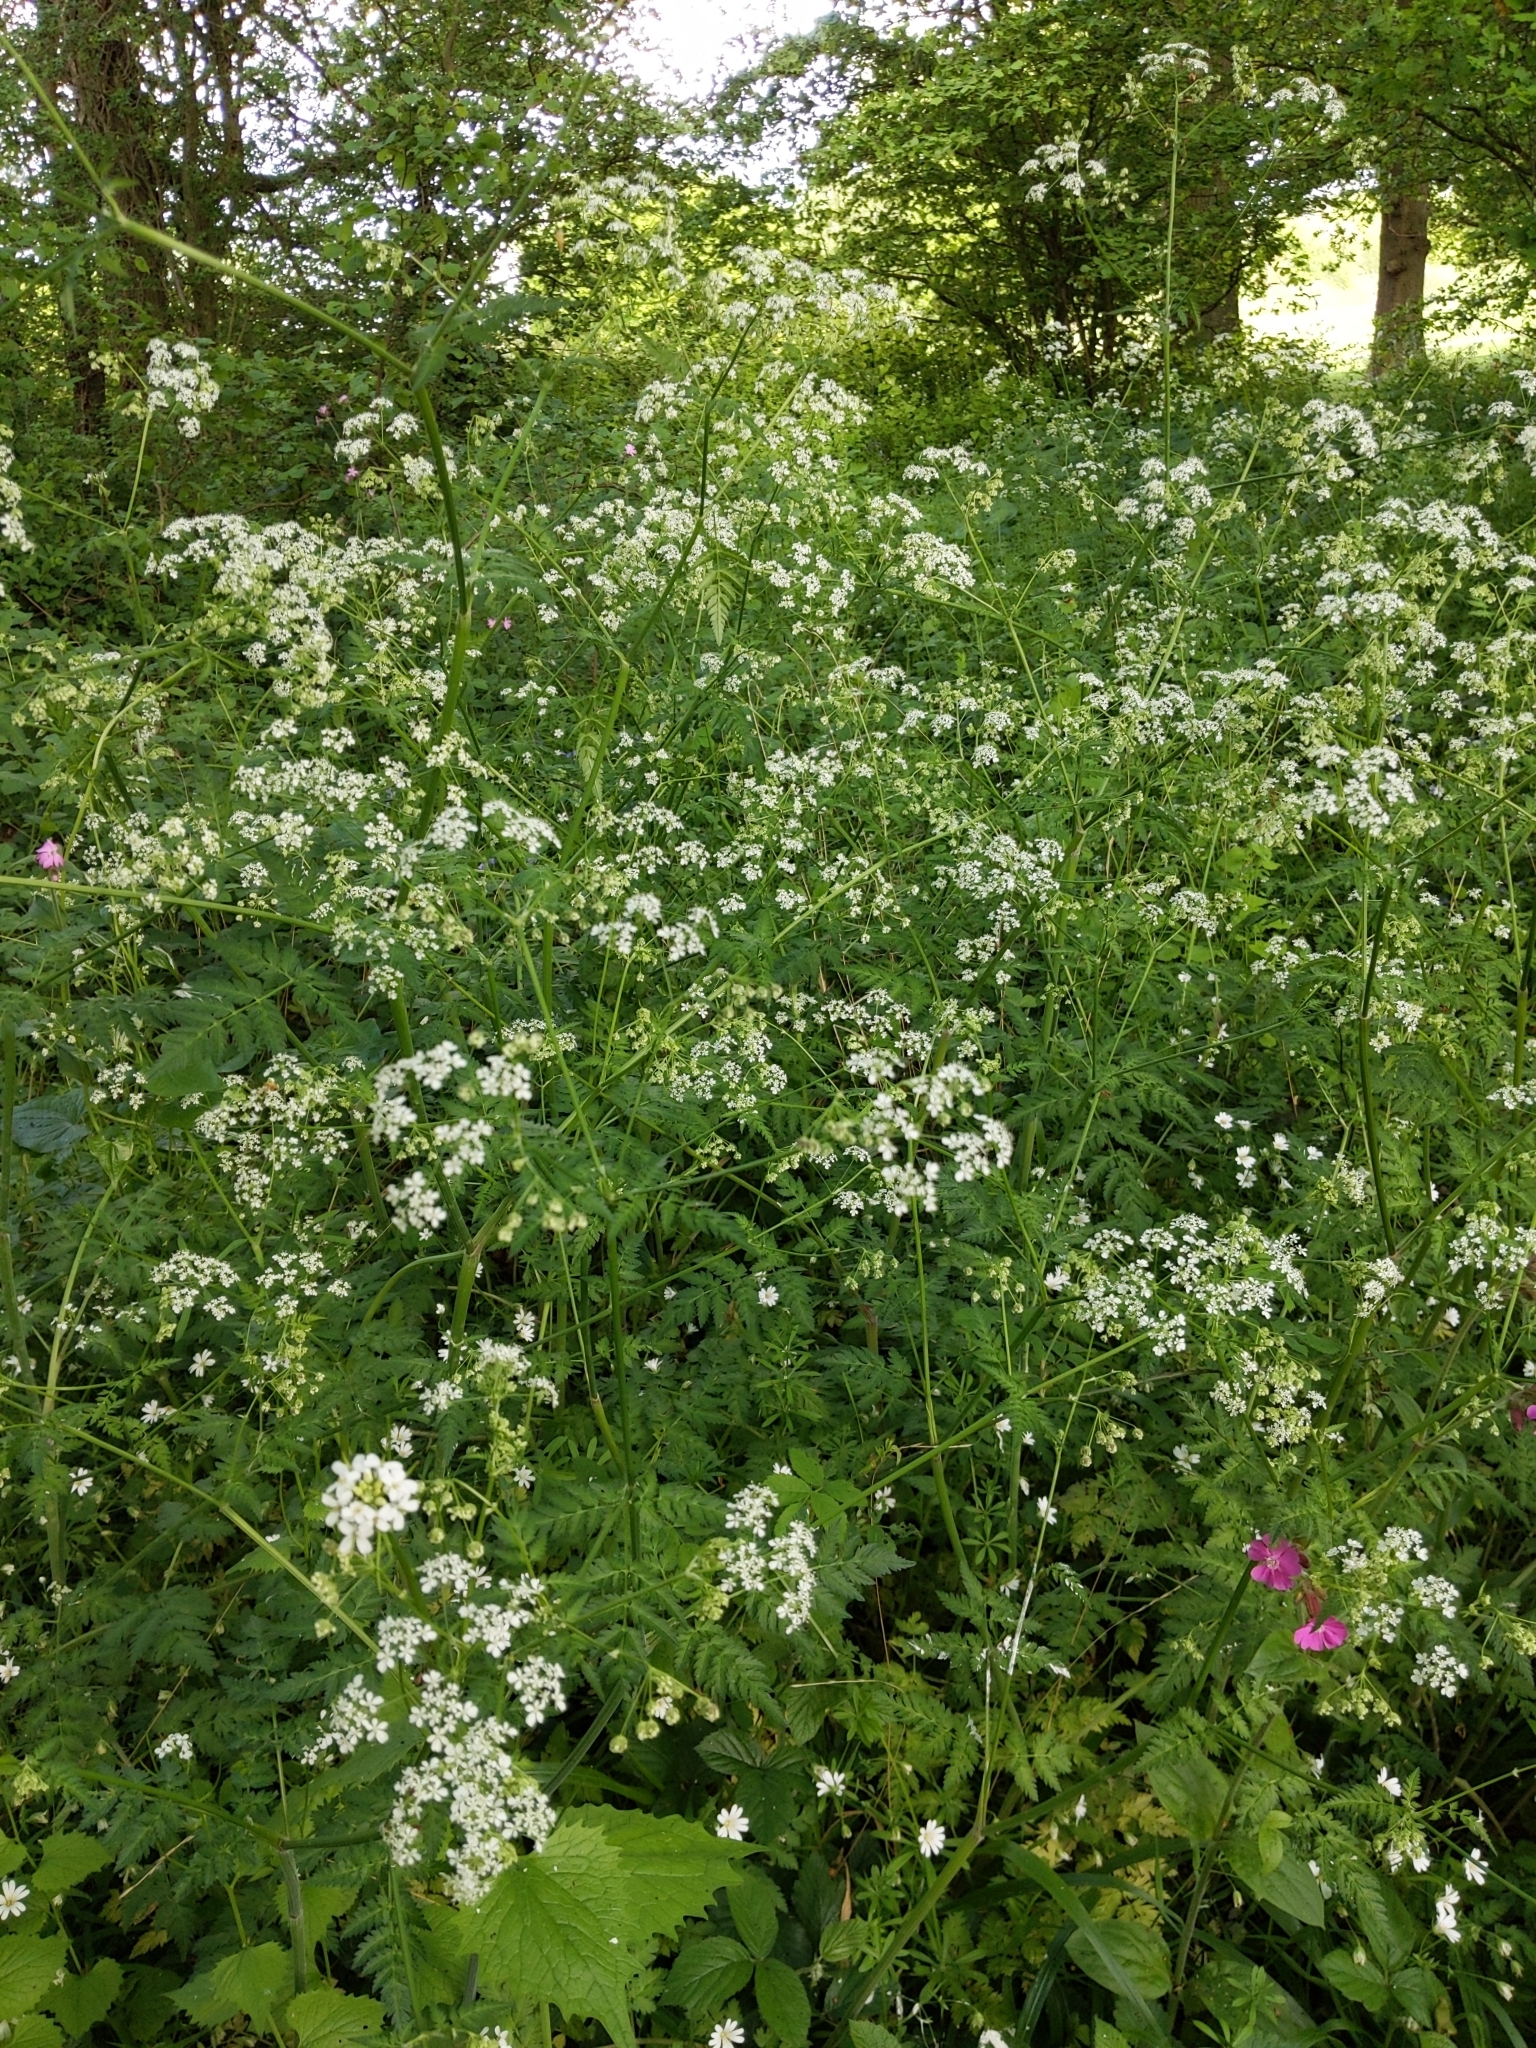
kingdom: Plantae
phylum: Tracheophyta
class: Magnoliopsida
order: Apiales
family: Apiaceae
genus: Anthriscus
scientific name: Anthriscus sylvestris
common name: Cow parsley
